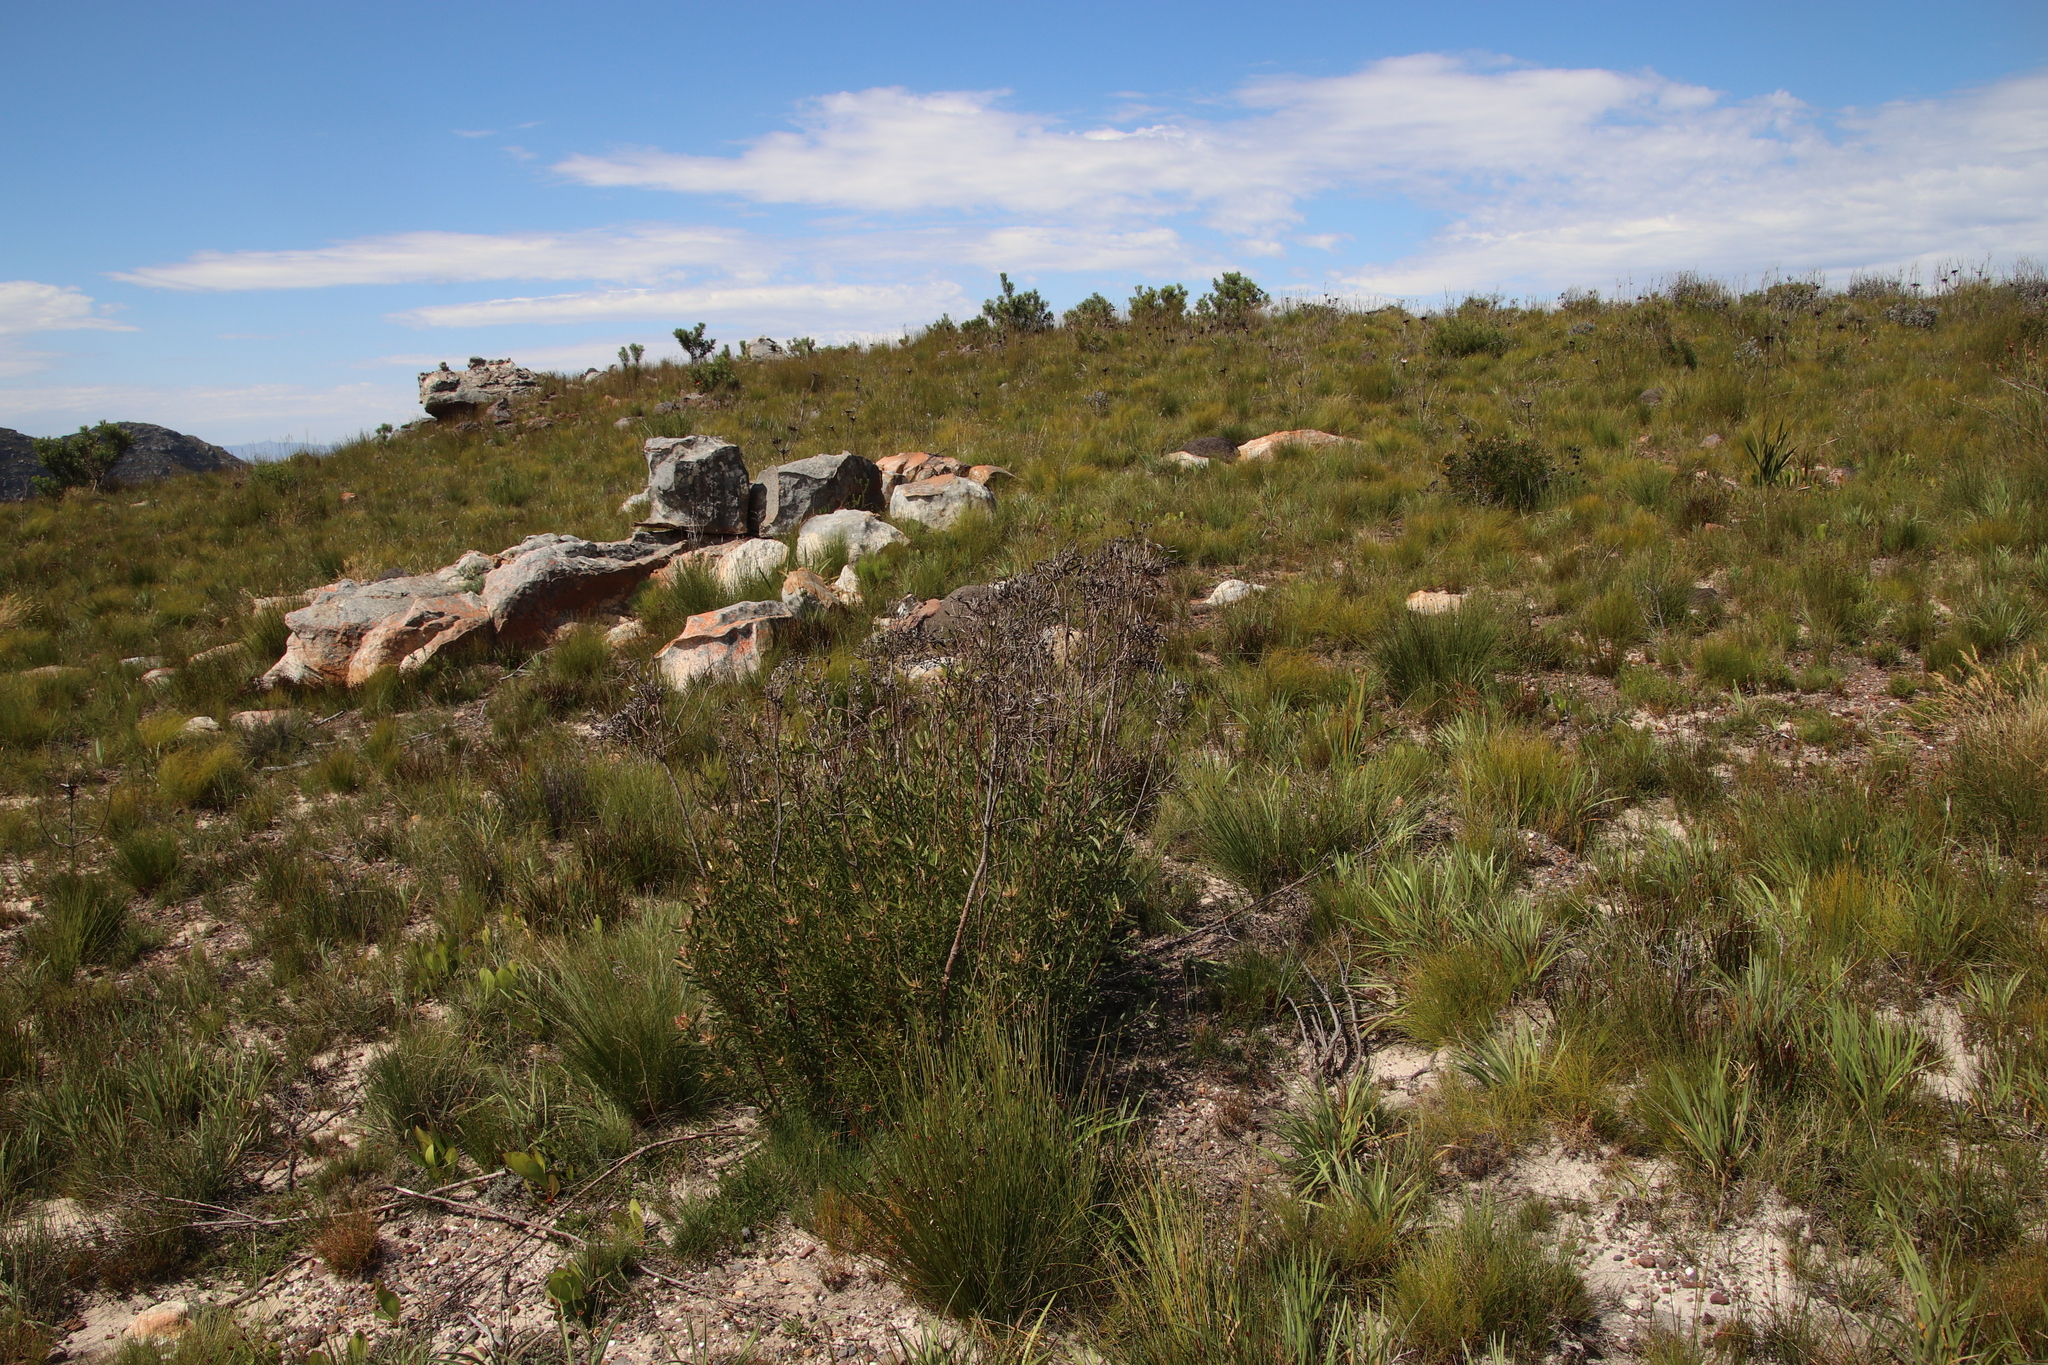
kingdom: Plantae
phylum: Tracheophyta
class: Magnoliopsida
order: Proteales
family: Proteaceae
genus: Leucadendron
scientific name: Leucadendron spissifolium
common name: Spear-leaf conebush
